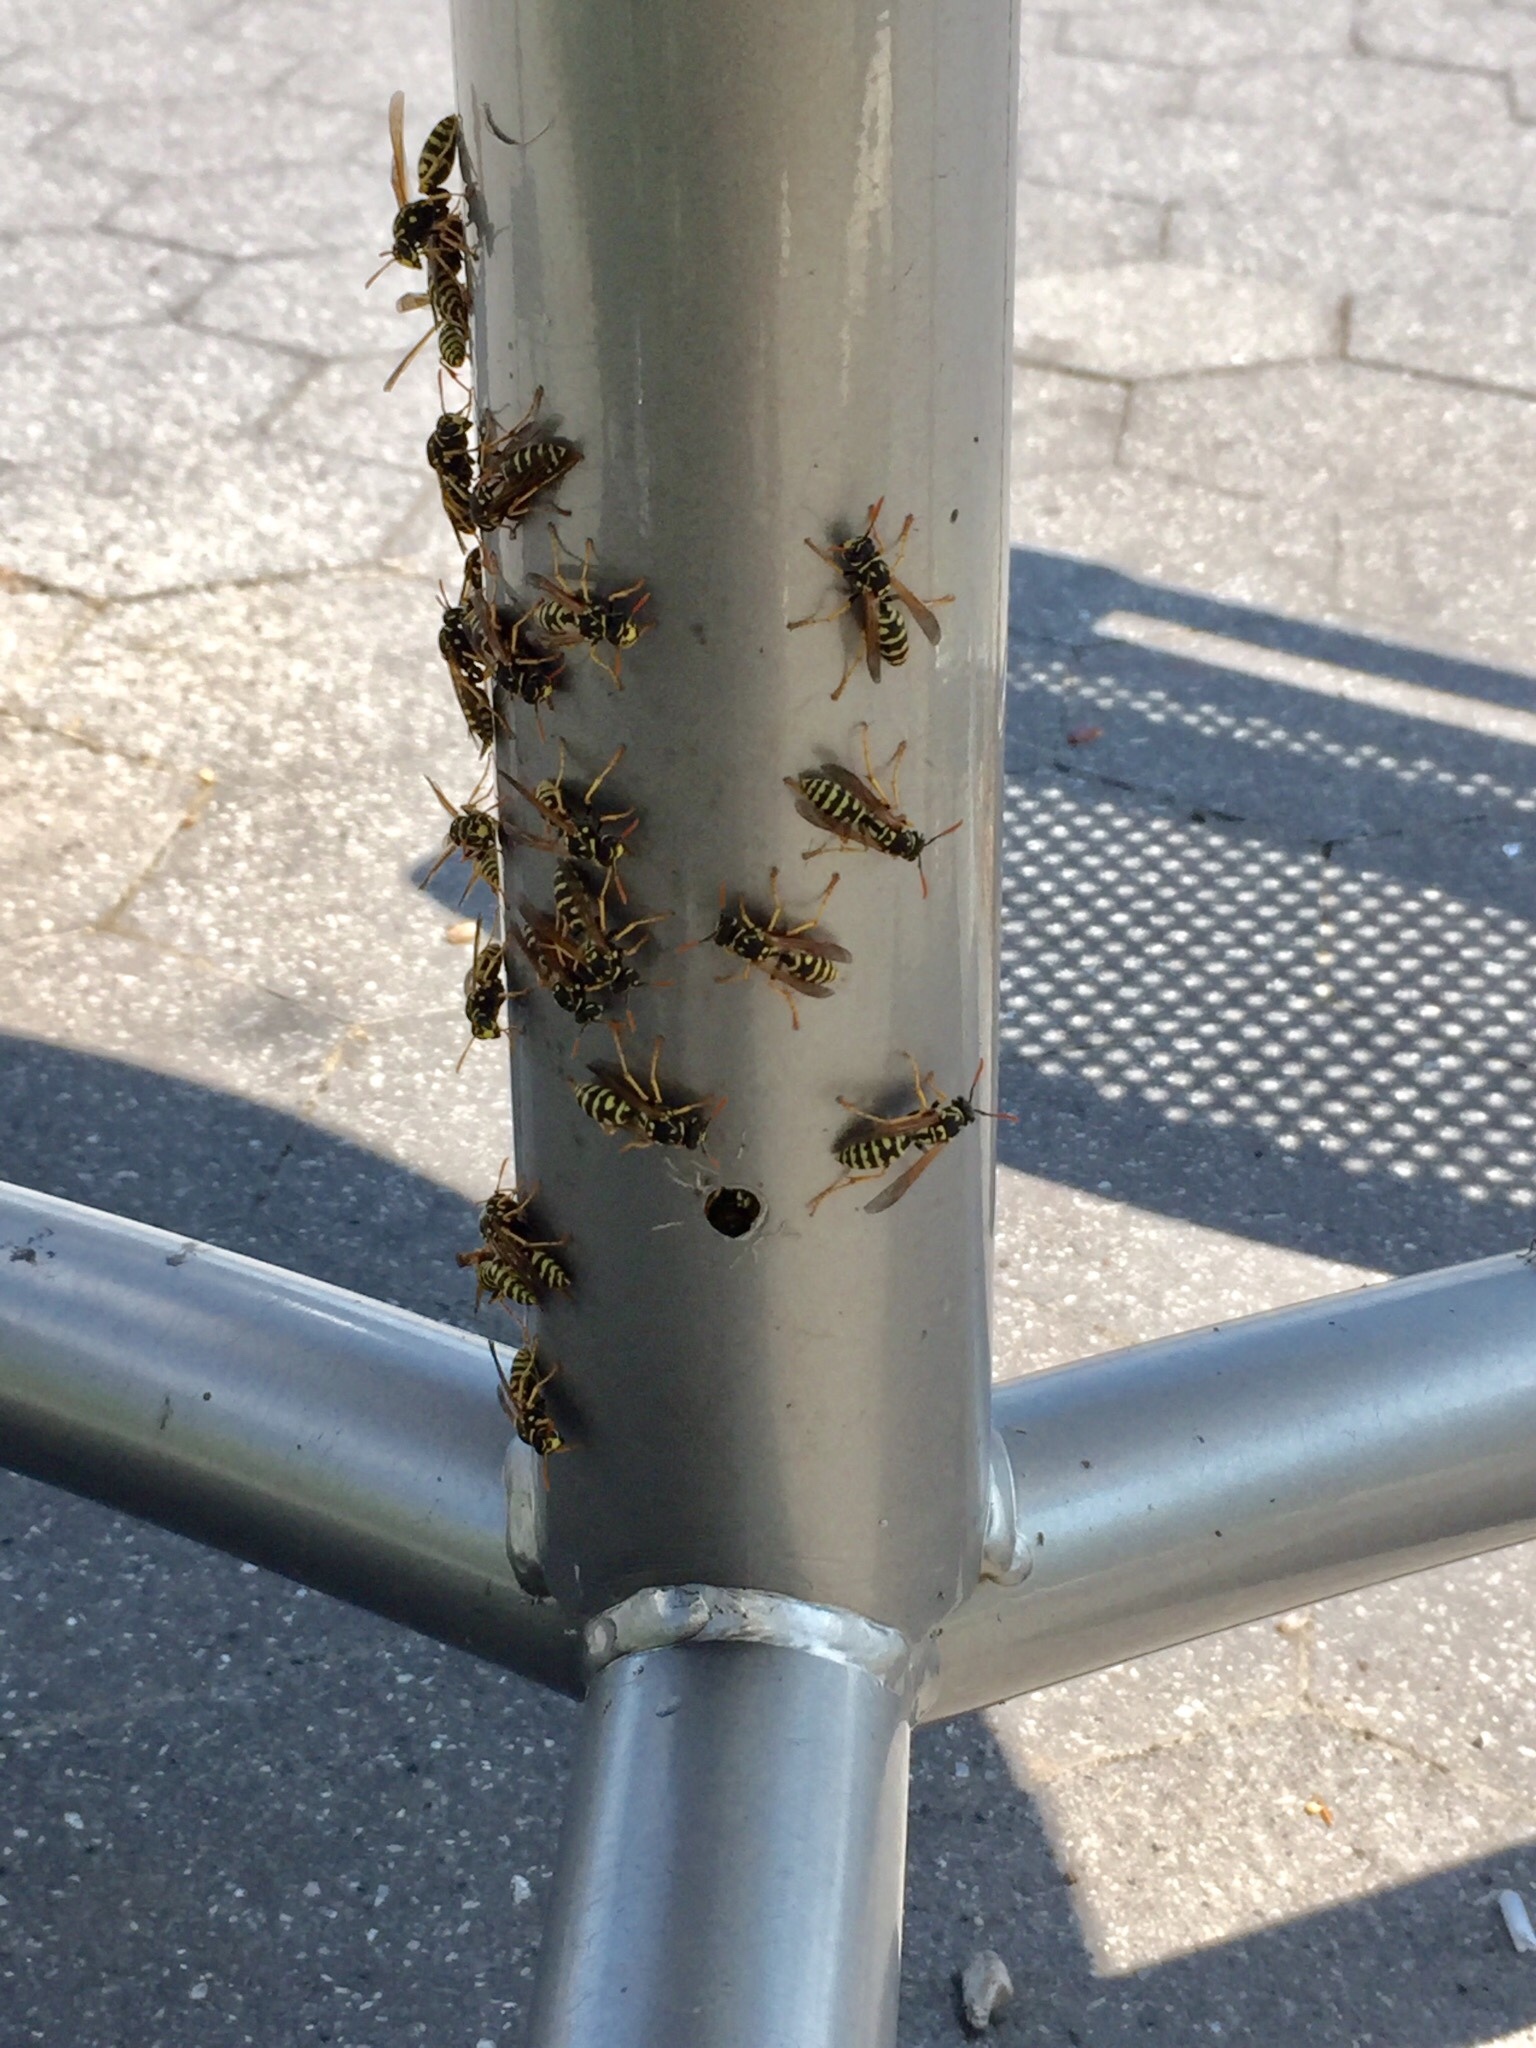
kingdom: Animalia
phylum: Arthropoda
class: Insecta
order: Hymenoptera
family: Eumenidae
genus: Polistes
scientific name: Polistes dominula
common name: Paper wasp
